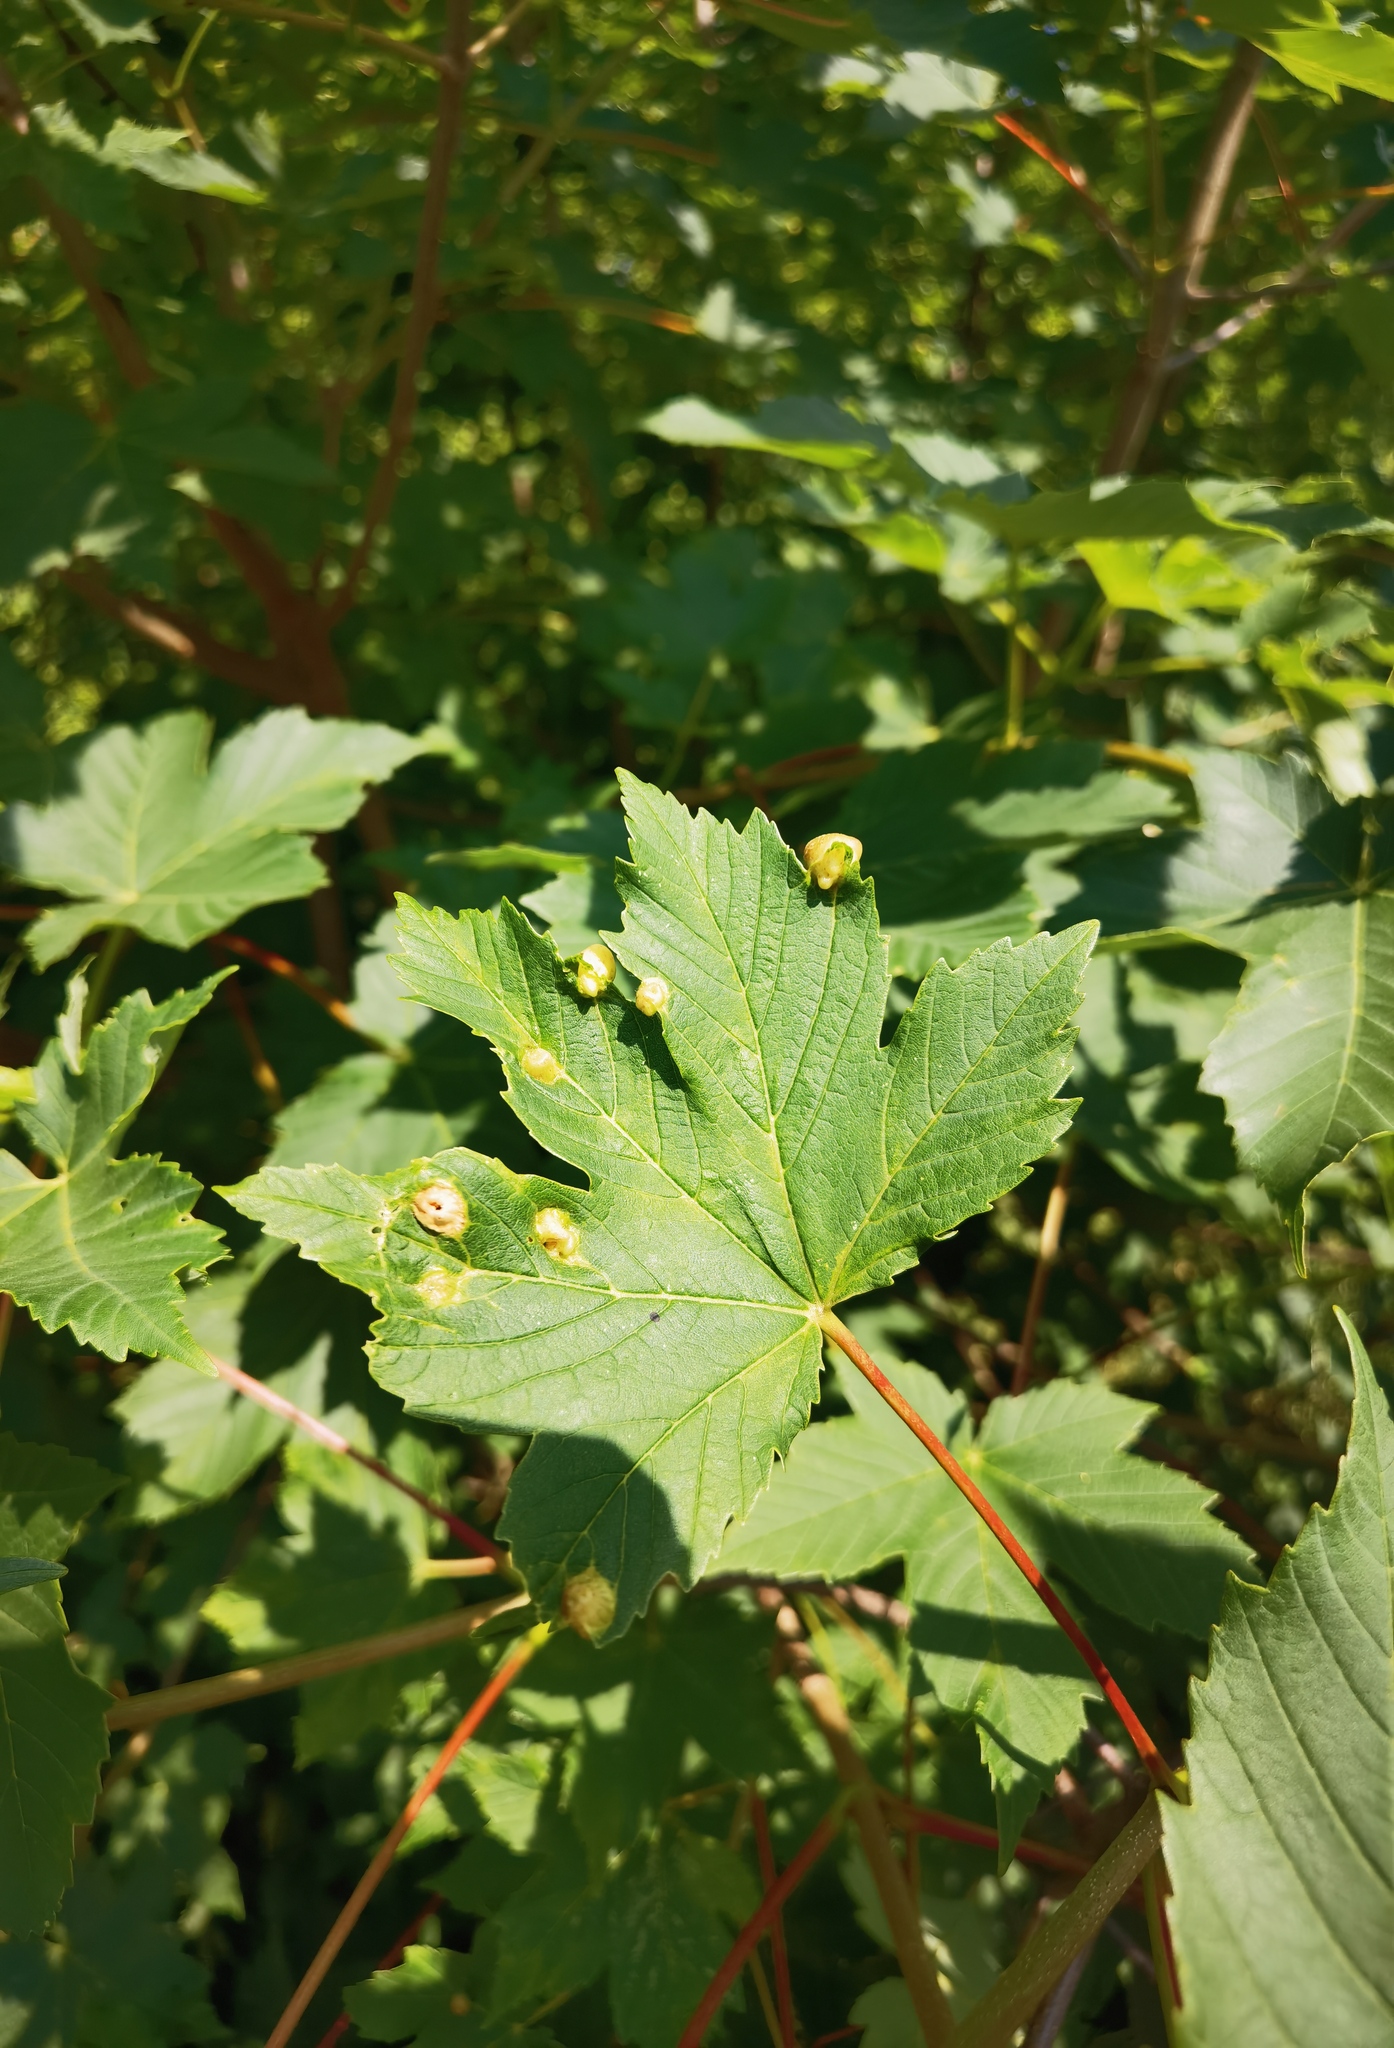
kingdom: Animalia
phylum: Arthropoda
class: Insecta
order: Hymenoptera
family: Cynipidae
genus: Pediaspis
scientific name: Pediaspis aceris
